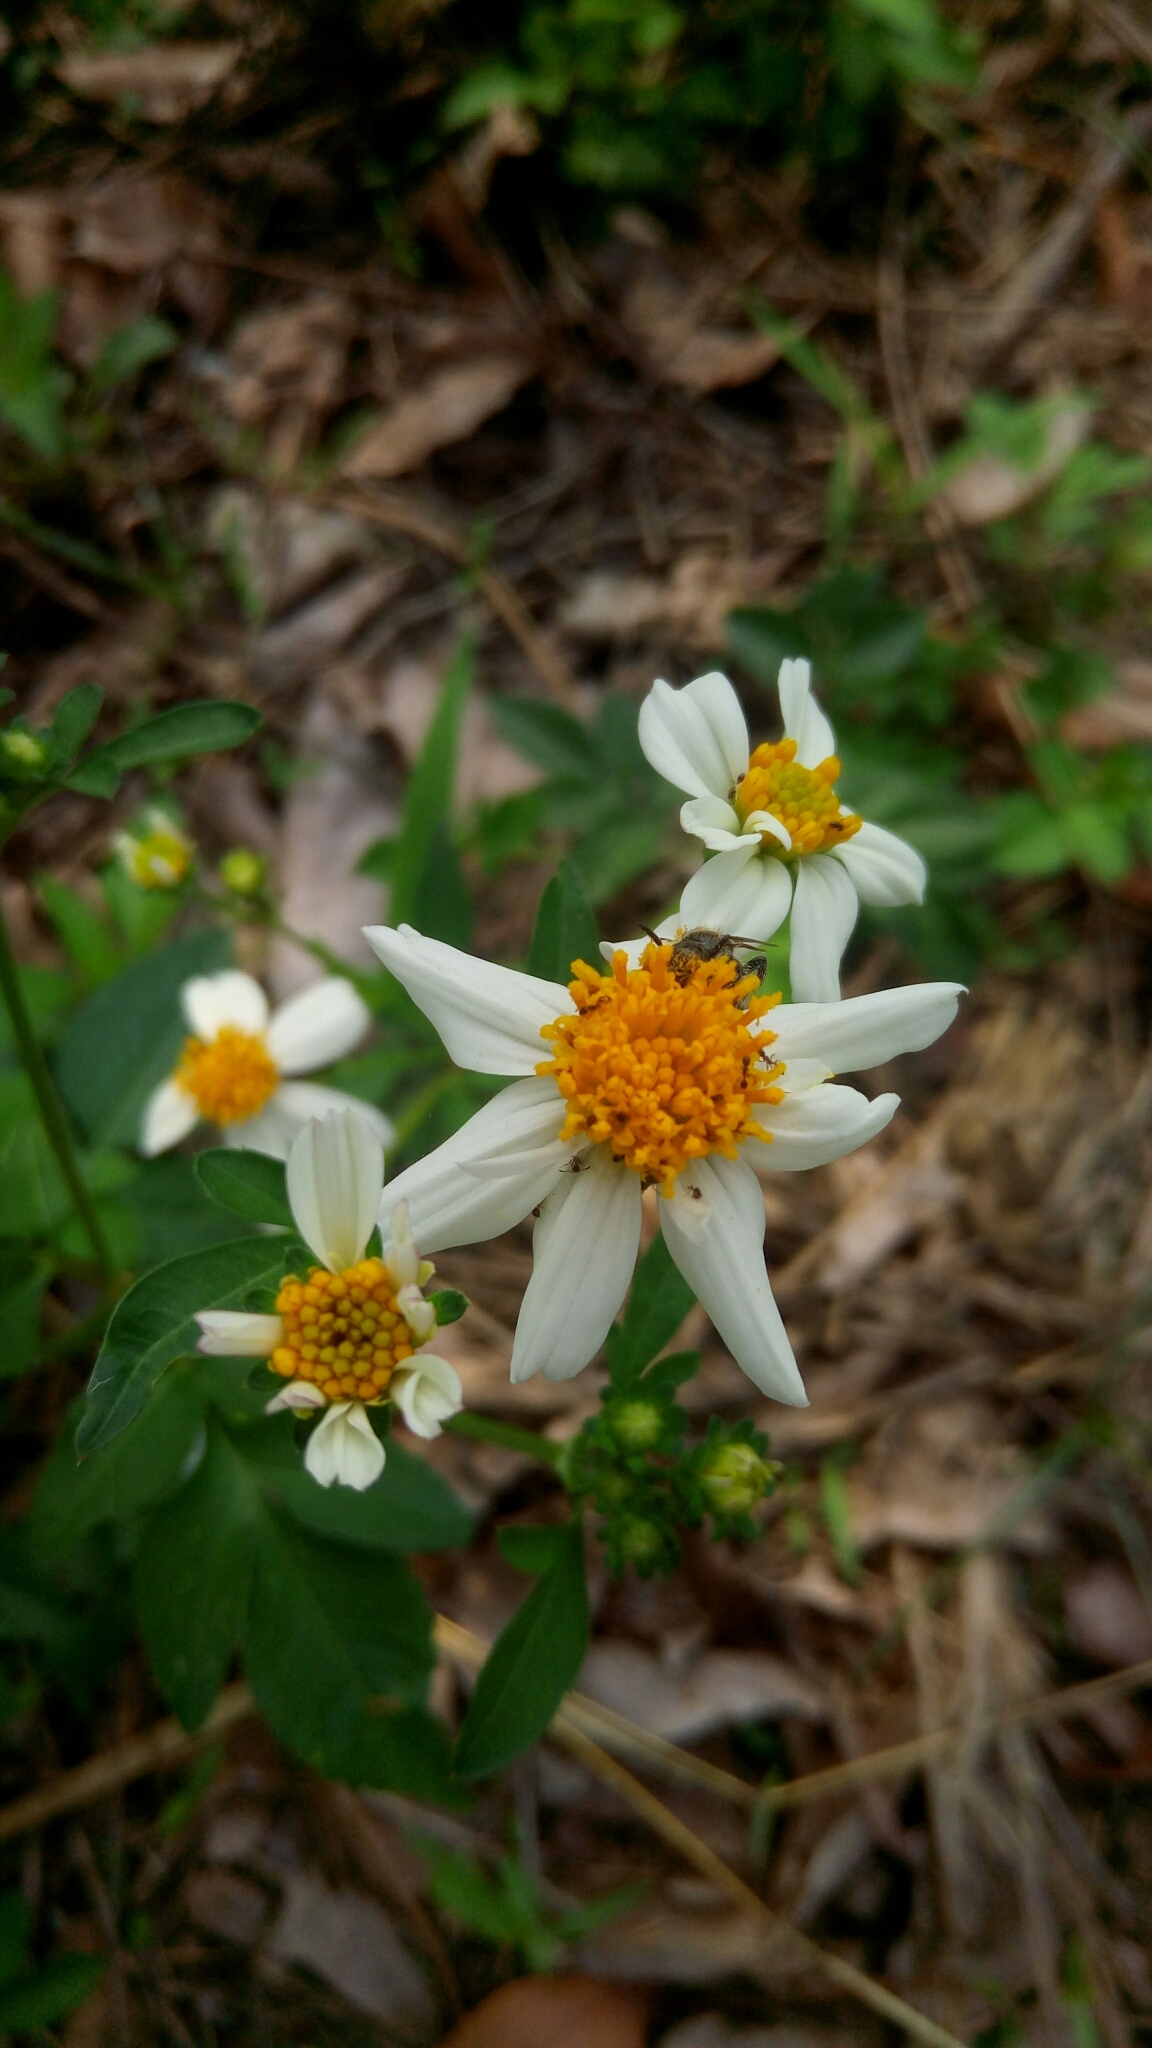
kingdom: Plantae
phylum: Tracheophyta
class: Magnoliopsida
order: Asterales
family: Asteraceae
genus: Bidens
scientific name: Bidens alba
